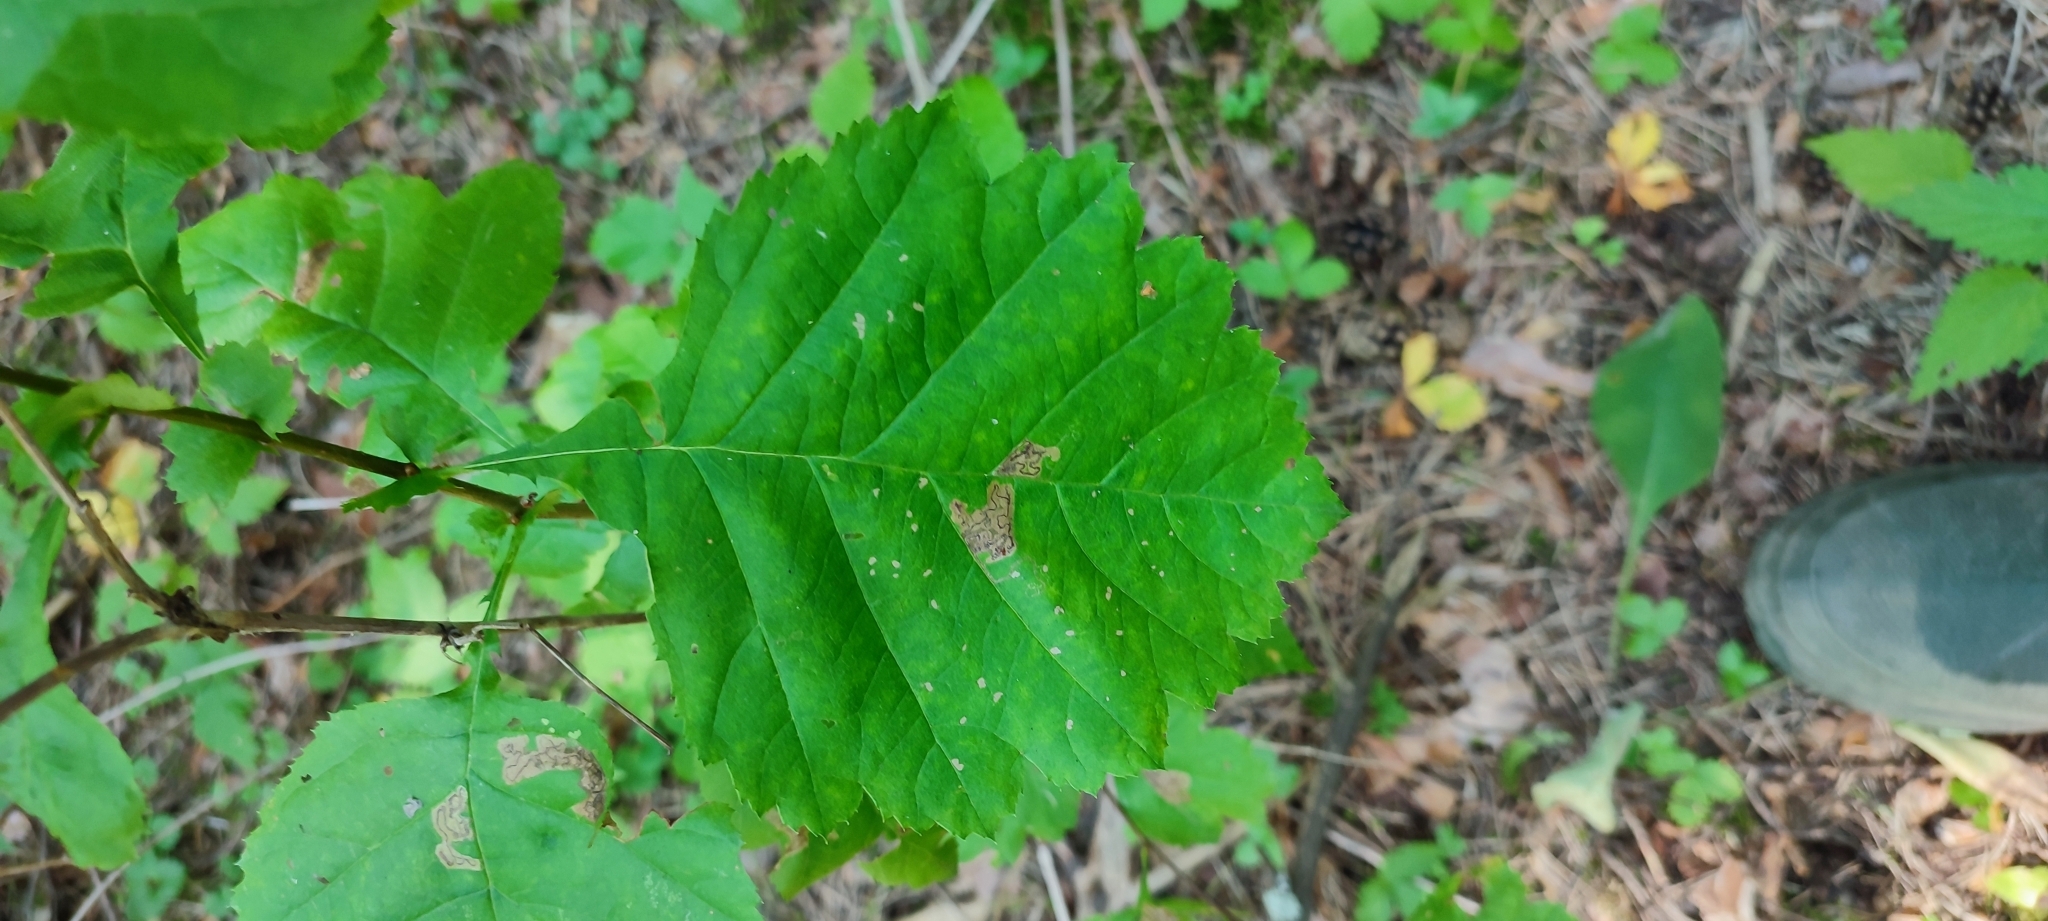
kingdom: Plantae
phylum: Tracheophyta
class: Magnoliopsida
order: Rosales
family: Rosaceae
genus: Crataegus
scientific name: Crataegus sanguinea
